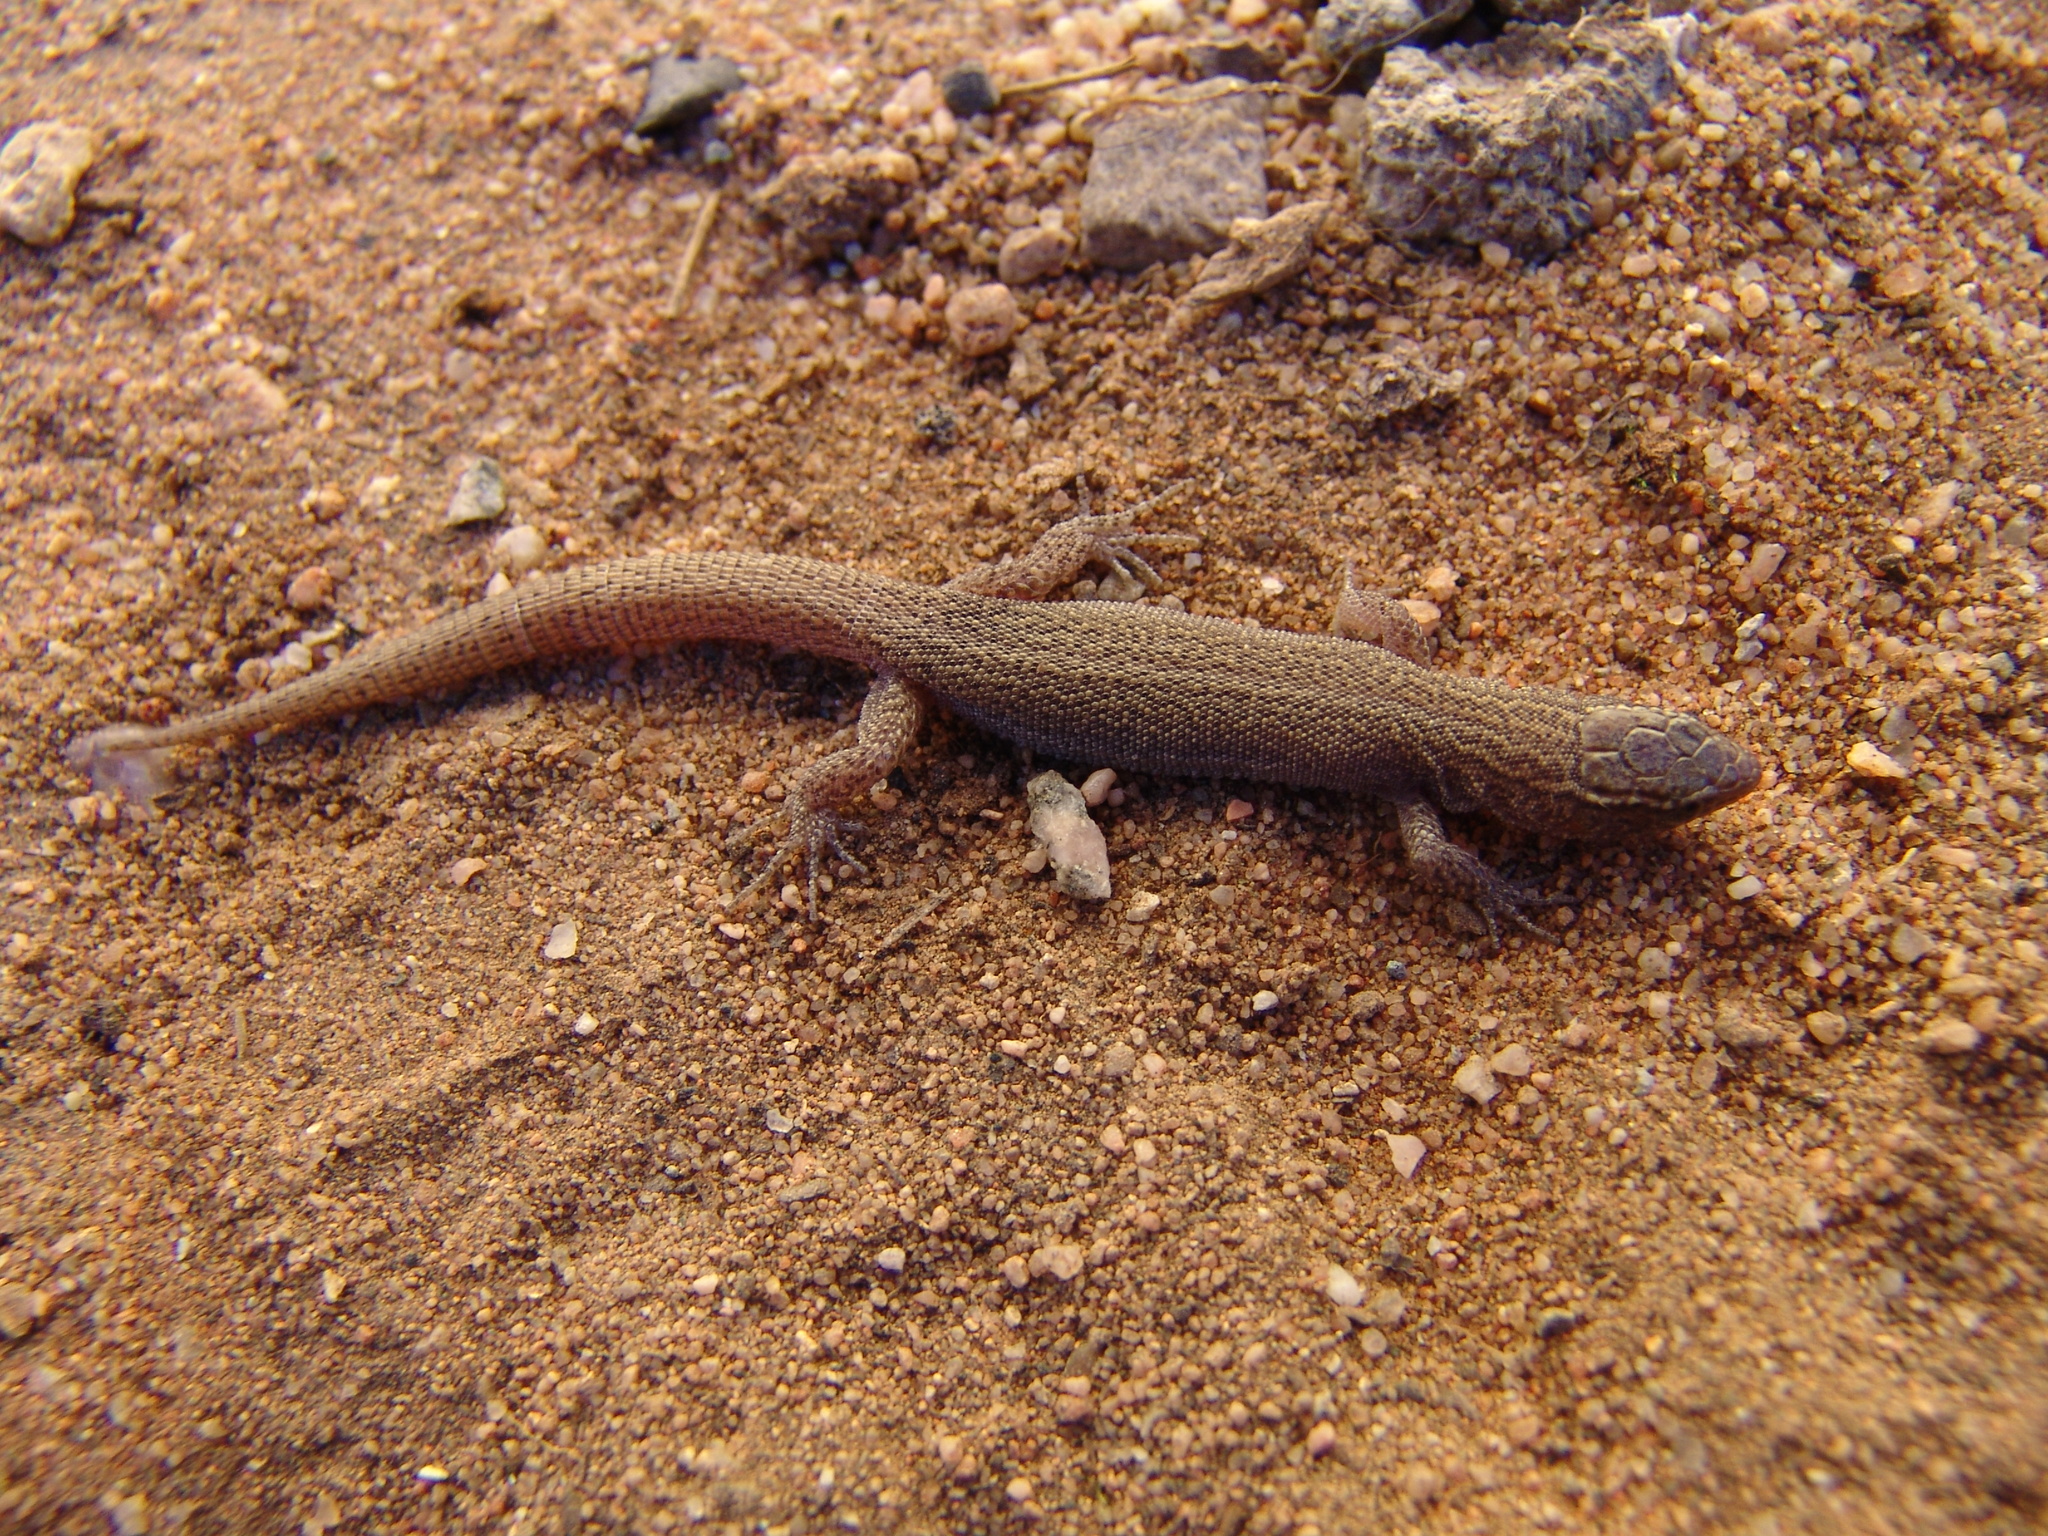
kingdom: Animalia
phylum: Chordata
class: Squamata
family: Xantusiidae
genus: Xantusia
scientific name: Xantusia vigilis
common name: Desert night lizard
